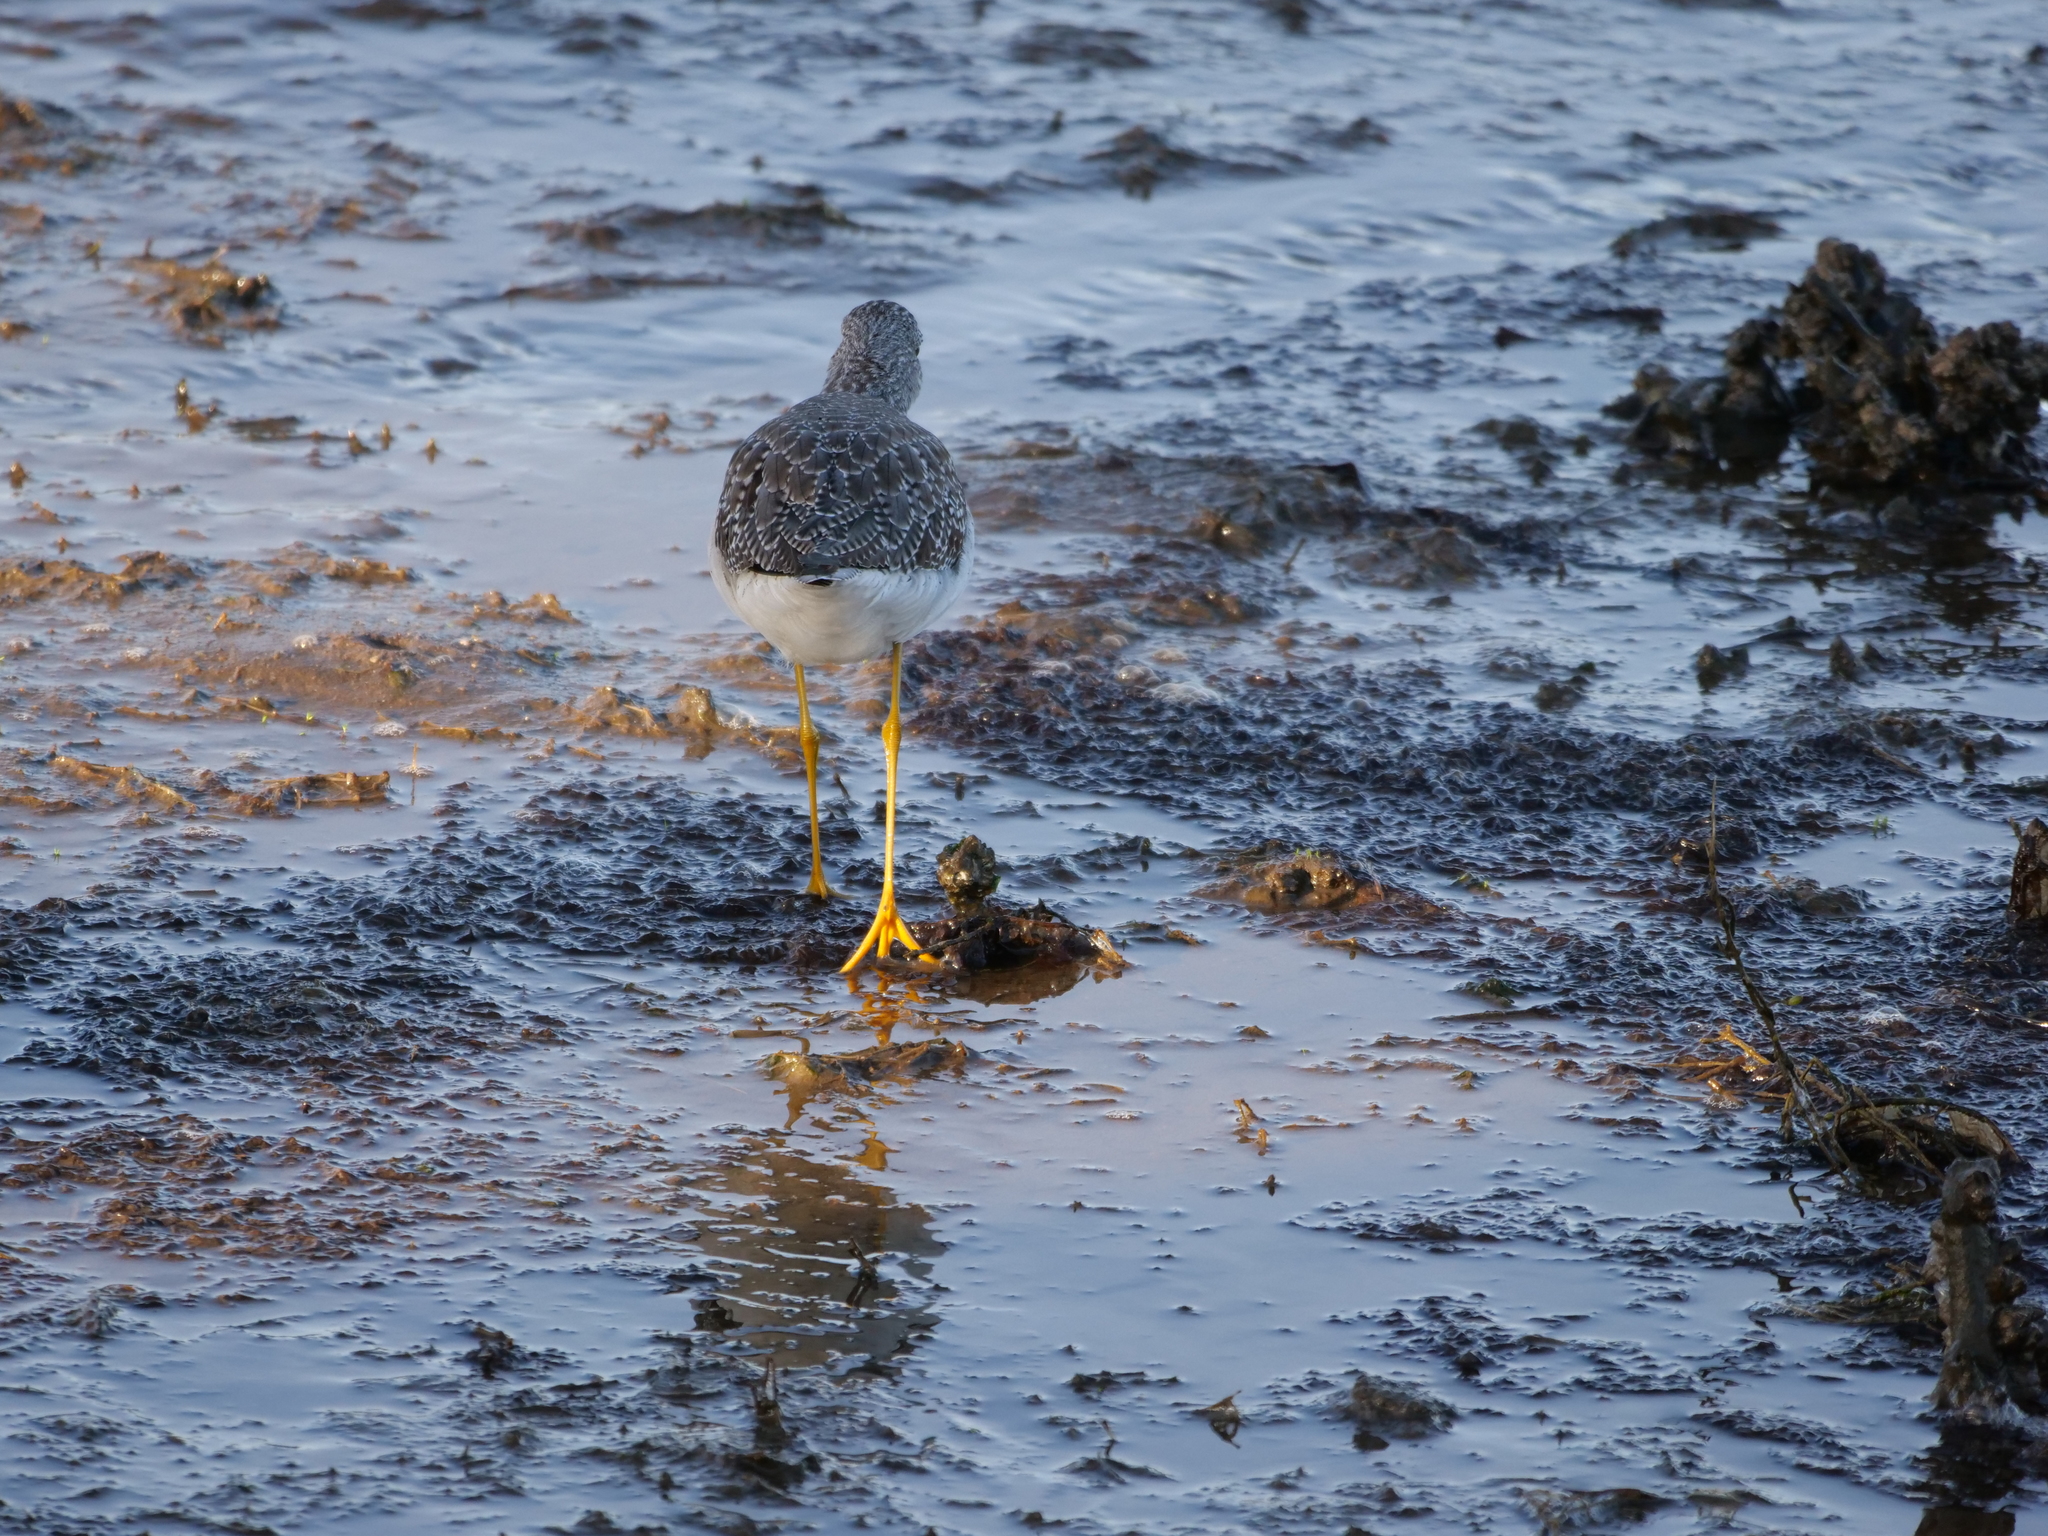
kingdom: Animalia
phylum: Chordata
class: Aves
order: Charadriiformes
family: Scolopacidae
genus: Tringa
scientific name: Tringa melanoleuca
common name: Greater yellowlegs
